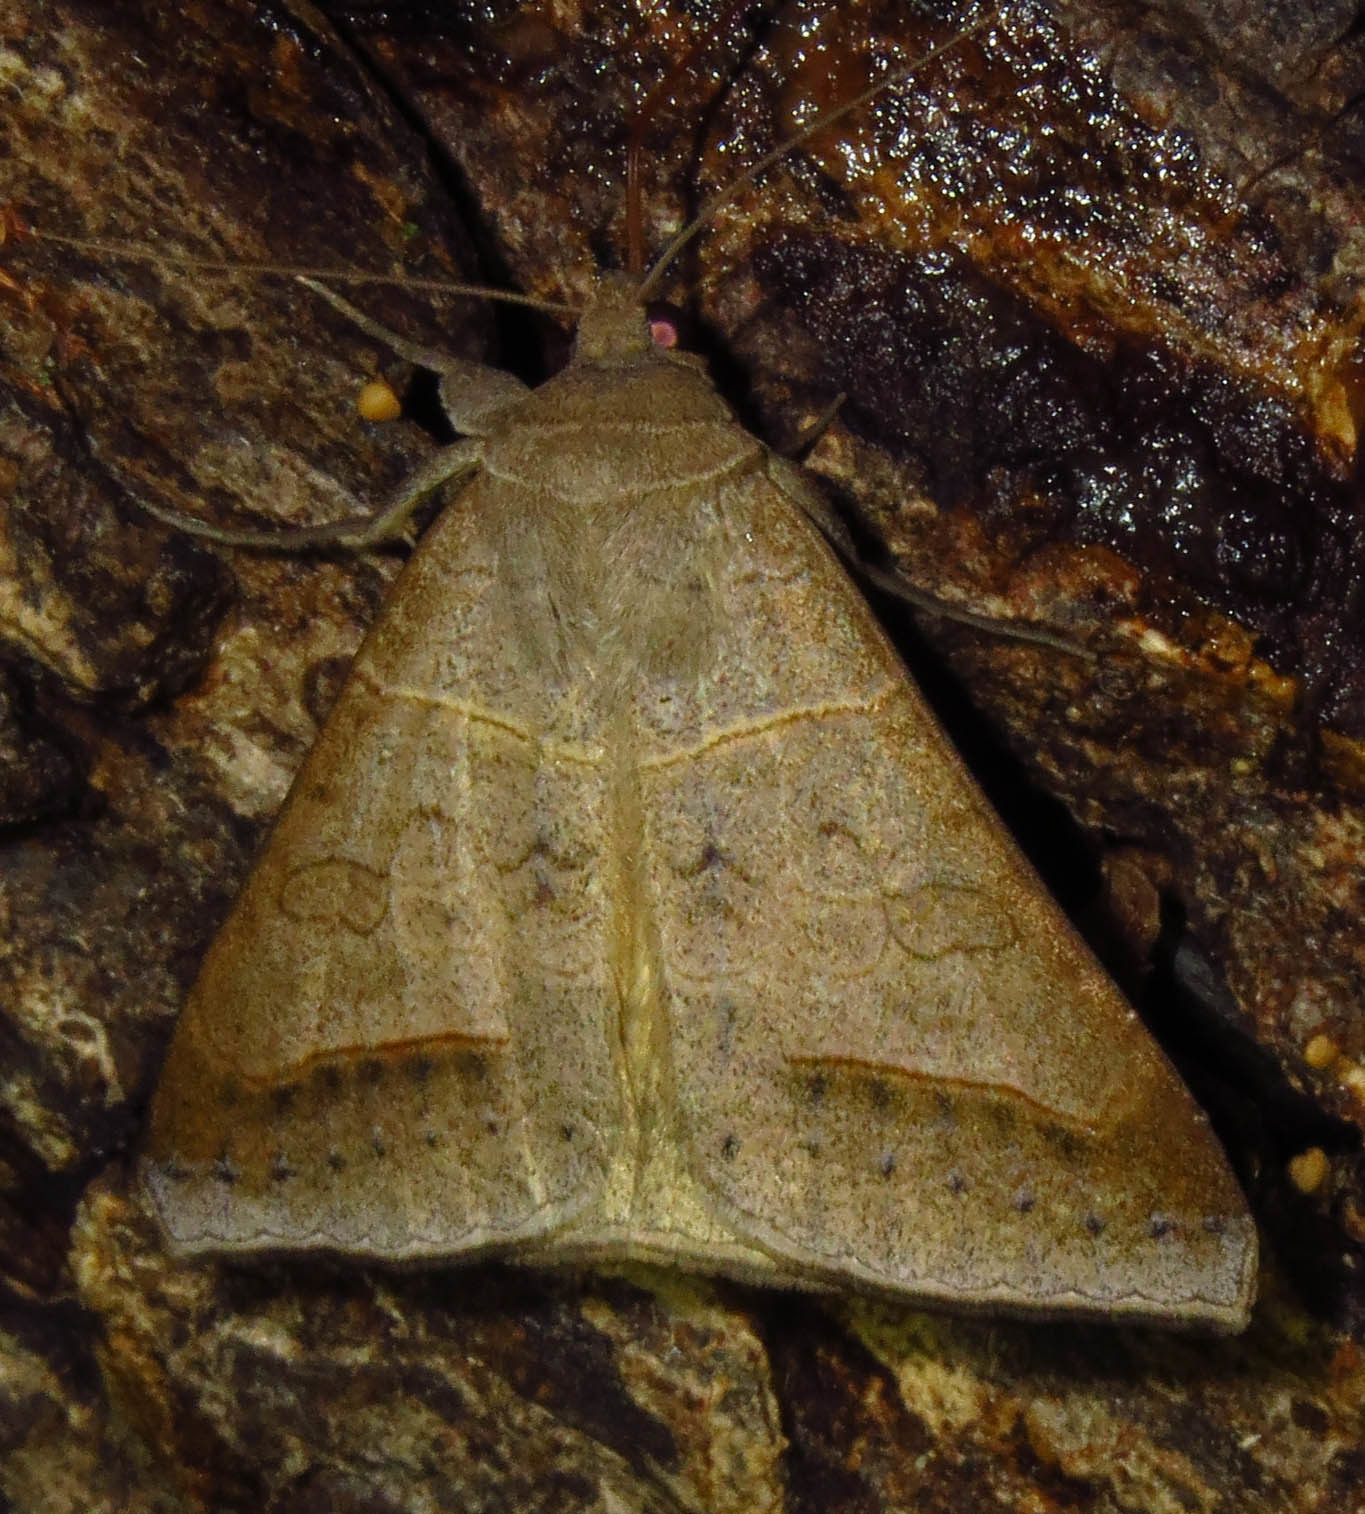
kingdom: Animalia
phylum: Arthropoda
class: Insecta
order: Lepidoptera
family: Erebidae
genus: Mocis
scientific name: Mocis marcida
